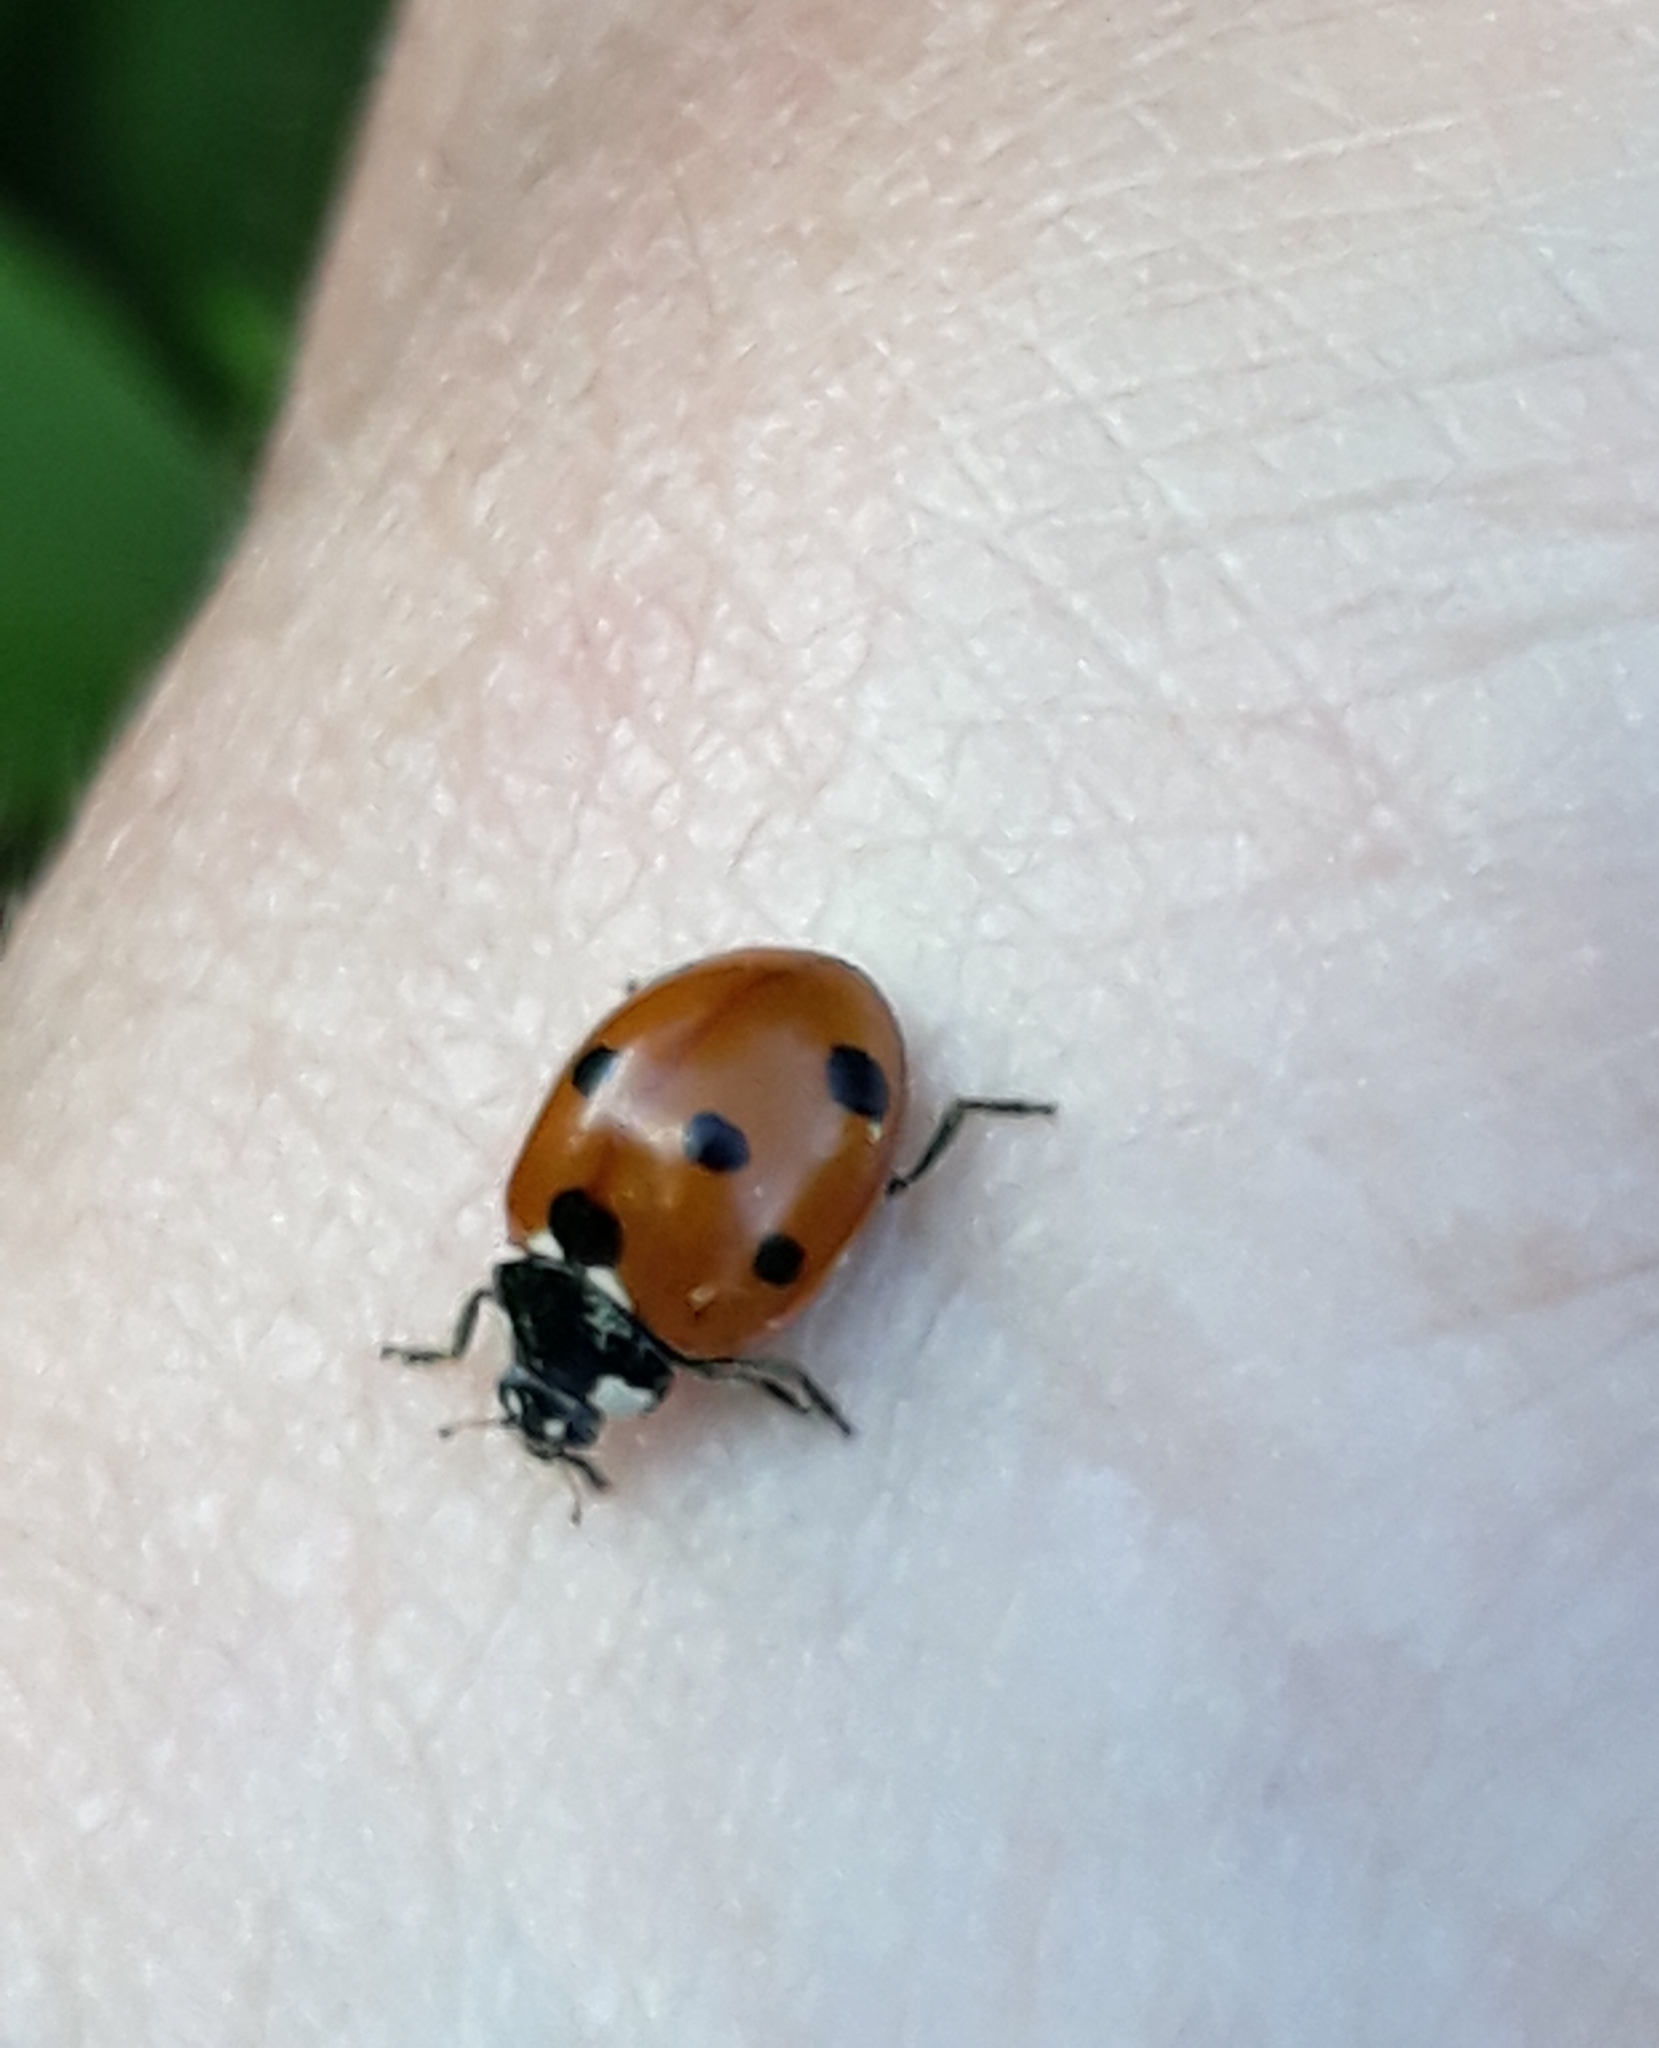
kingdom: Animalia
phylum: Arthropoda
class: Insecta
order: Coleoptera
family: Coccinellidae
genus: Coccinella
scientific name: Coccinella septempunctata
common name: Sevenspotted lady beetle
